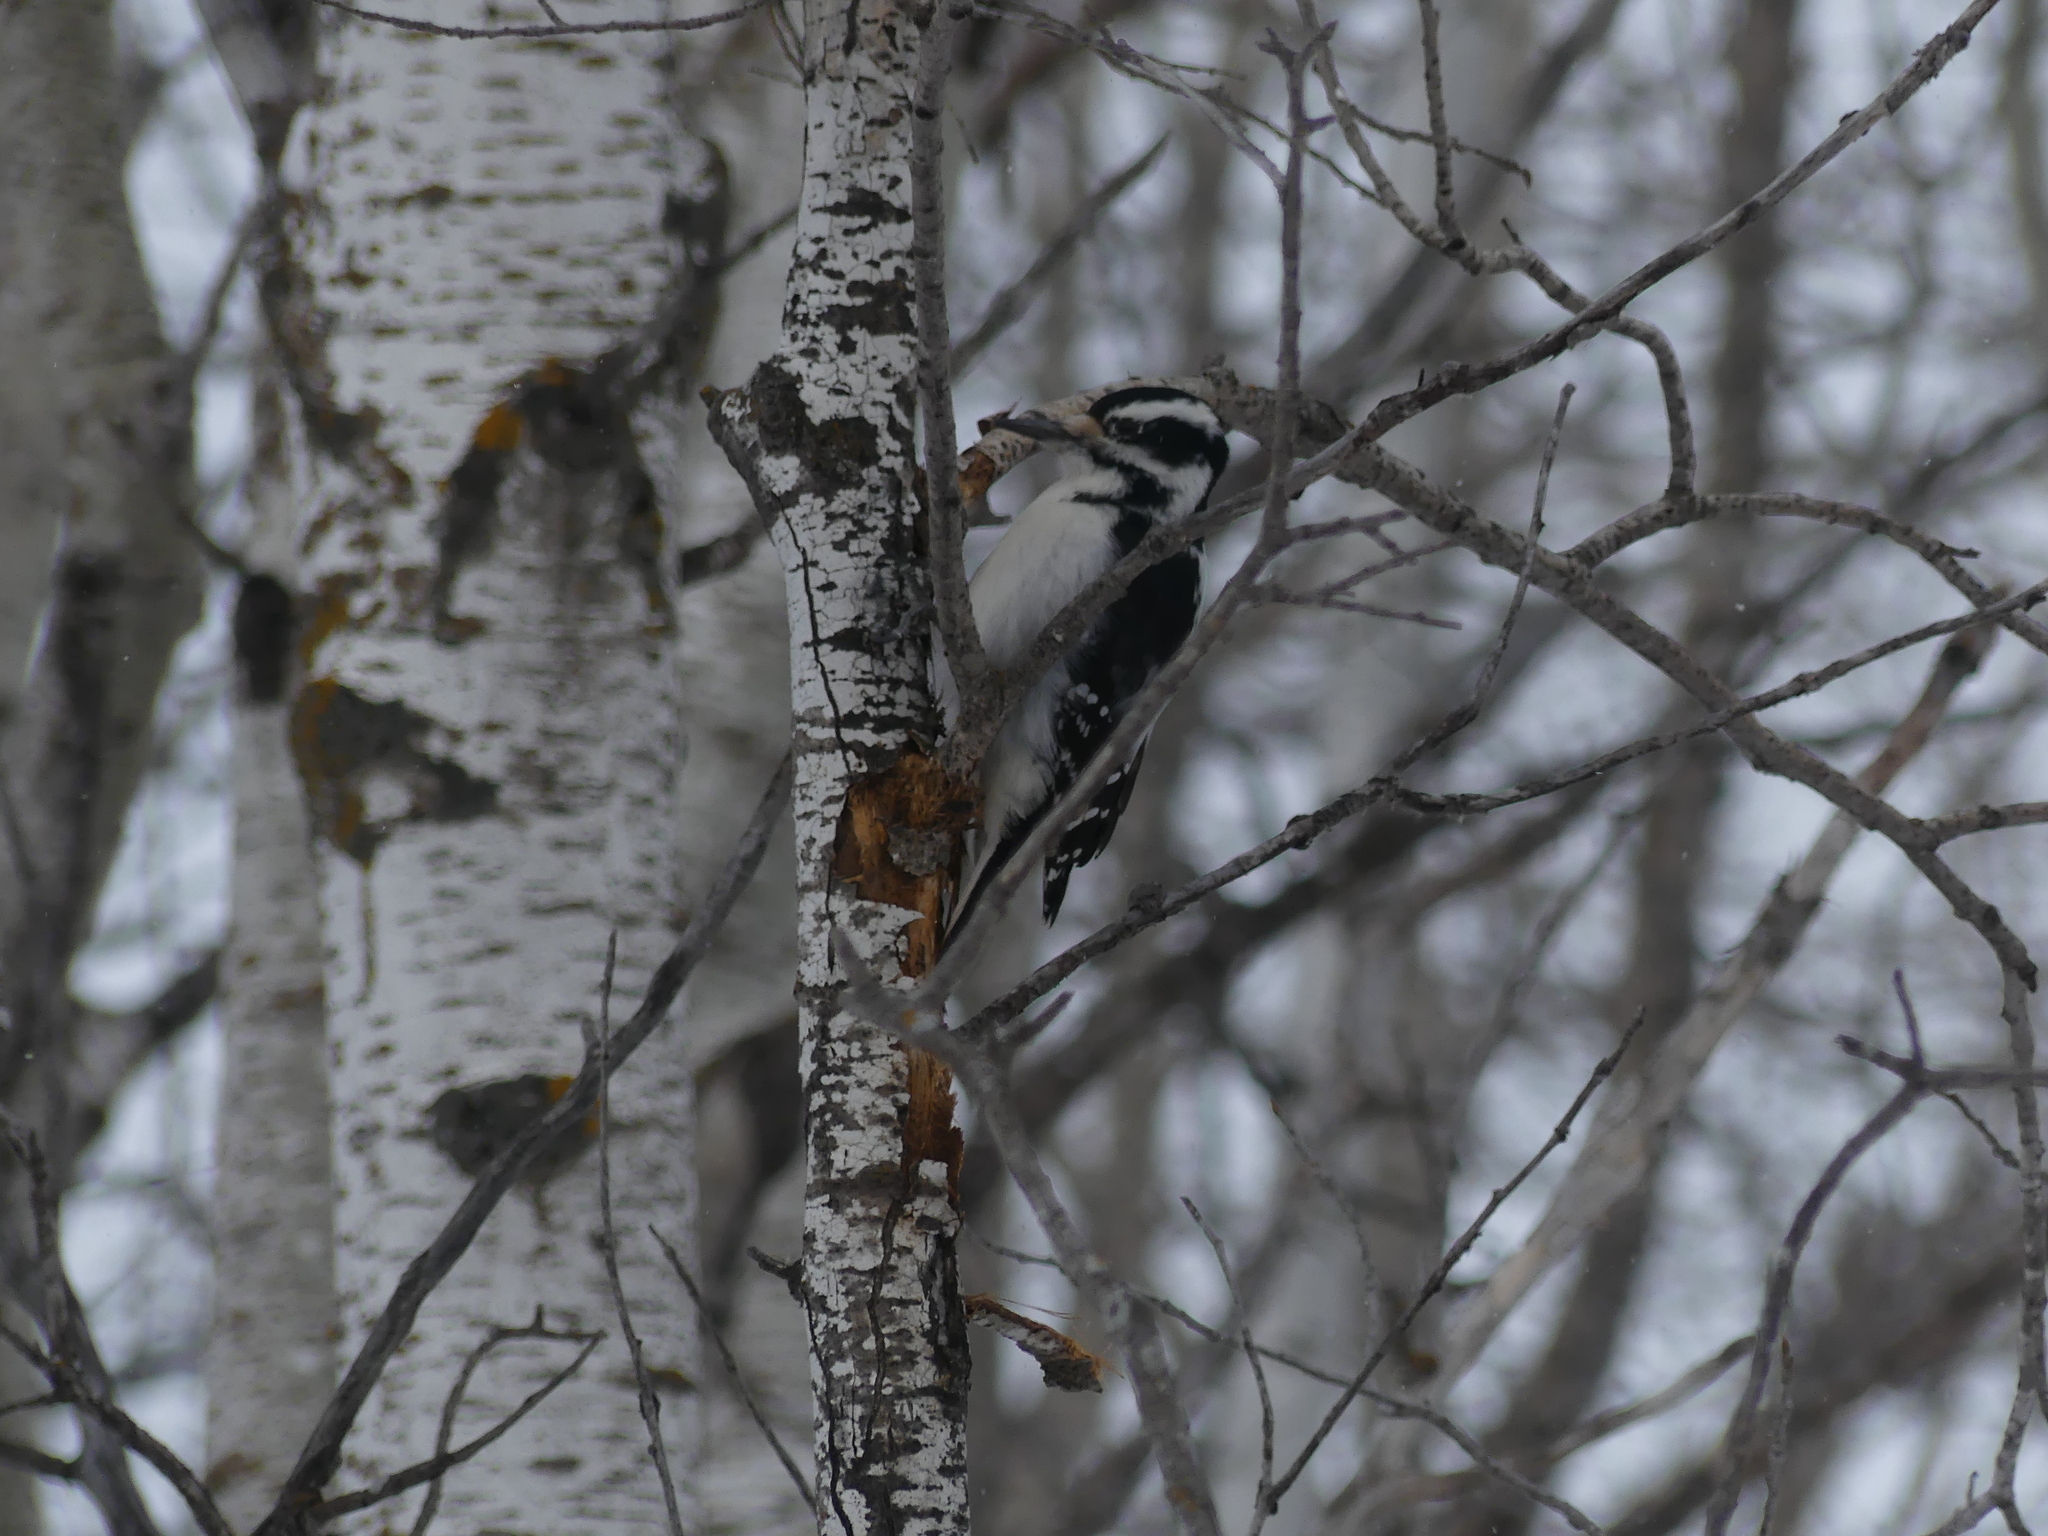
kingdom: Animalia
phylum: Chordata
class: Aves
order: Piciformes
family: Picidae
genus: Leuconotopicus
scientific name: Leuconotopicus villosus
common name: Hairy woodpecker
